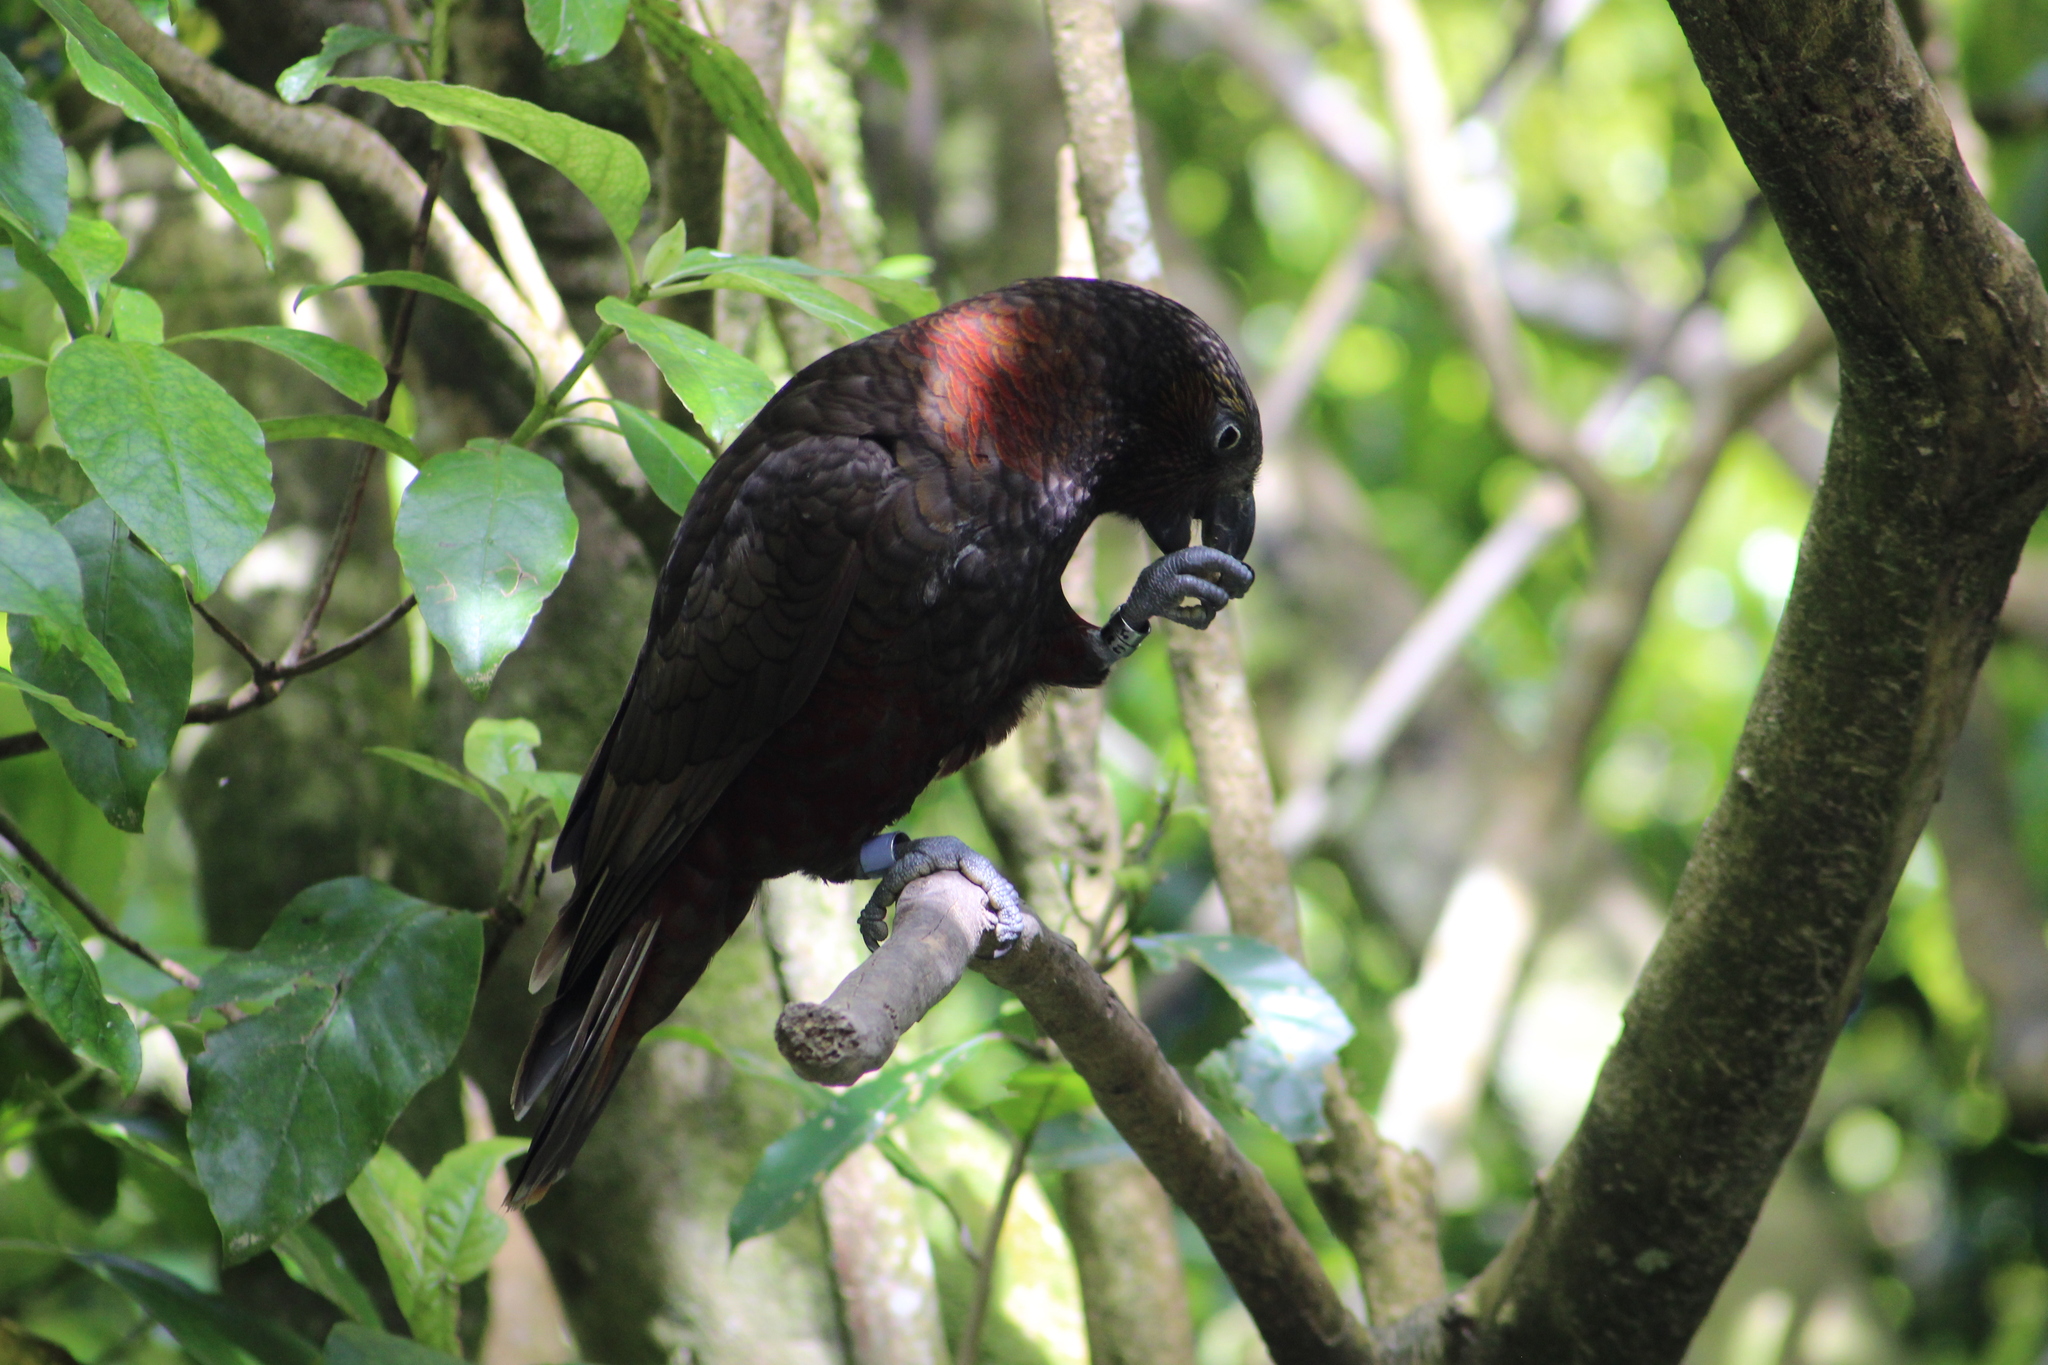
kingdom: Animalia
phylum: Chordata
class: Aves
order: Psittaciformes
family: Psittacidae
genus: Nestor
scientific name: Nestor meridionalis
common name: New zealand kaka
